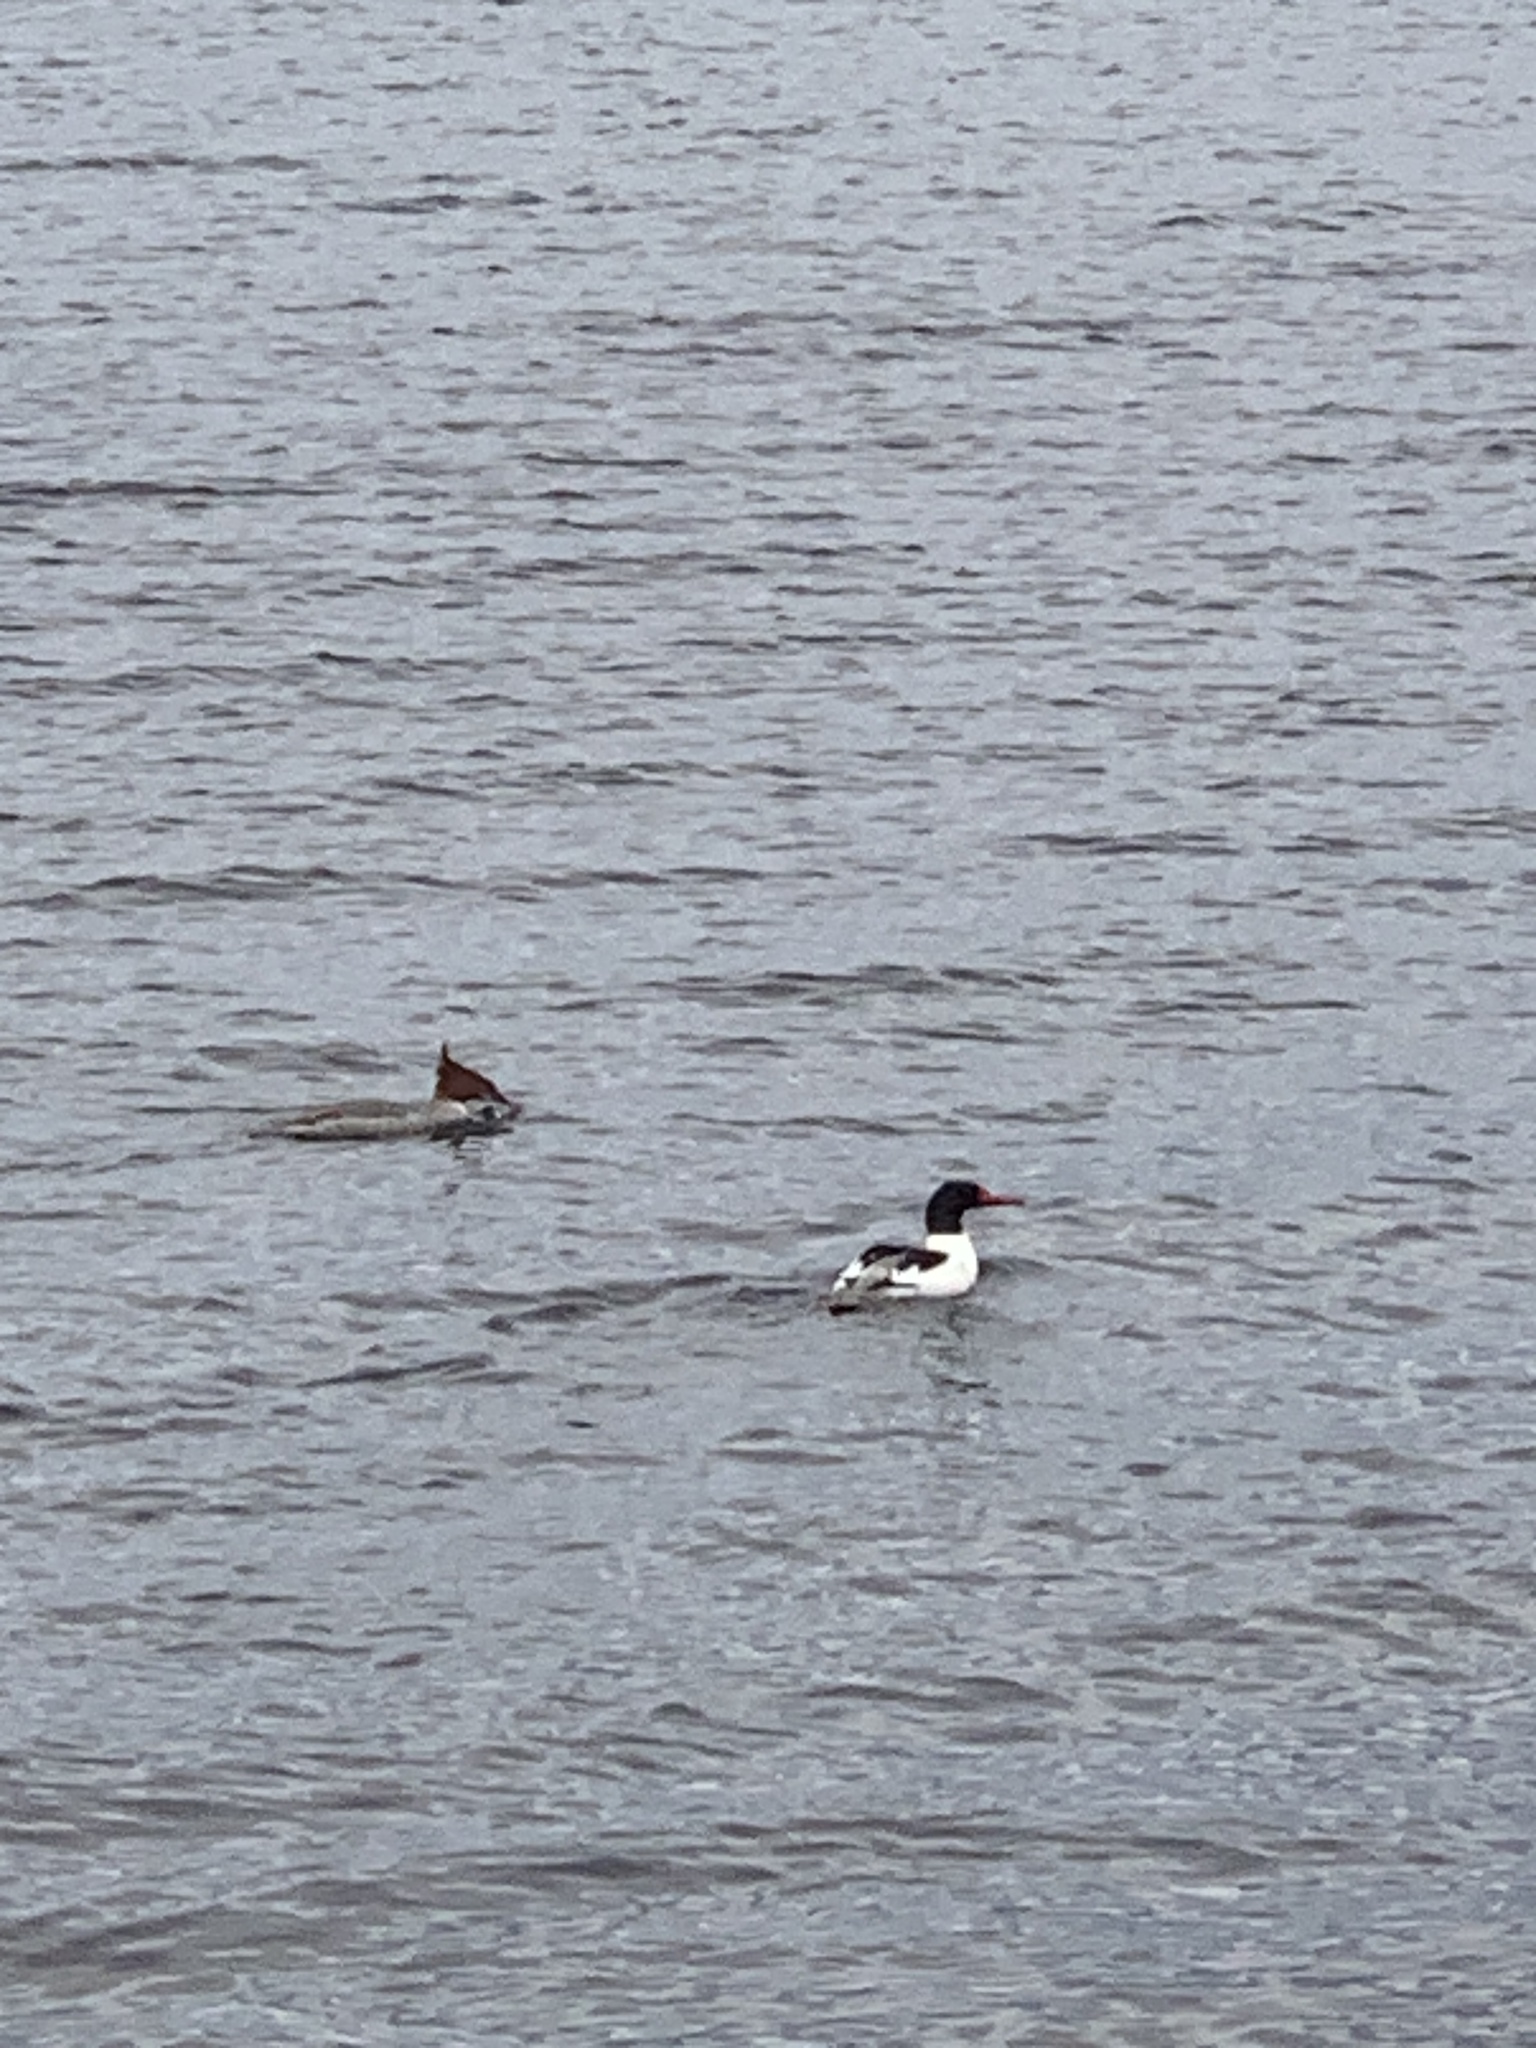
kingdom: Animalia
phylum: Chordata
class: Aves
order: Anseriformes
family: Anatidae
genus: Mergus
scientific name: Mergus merganser
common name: Common merganser
